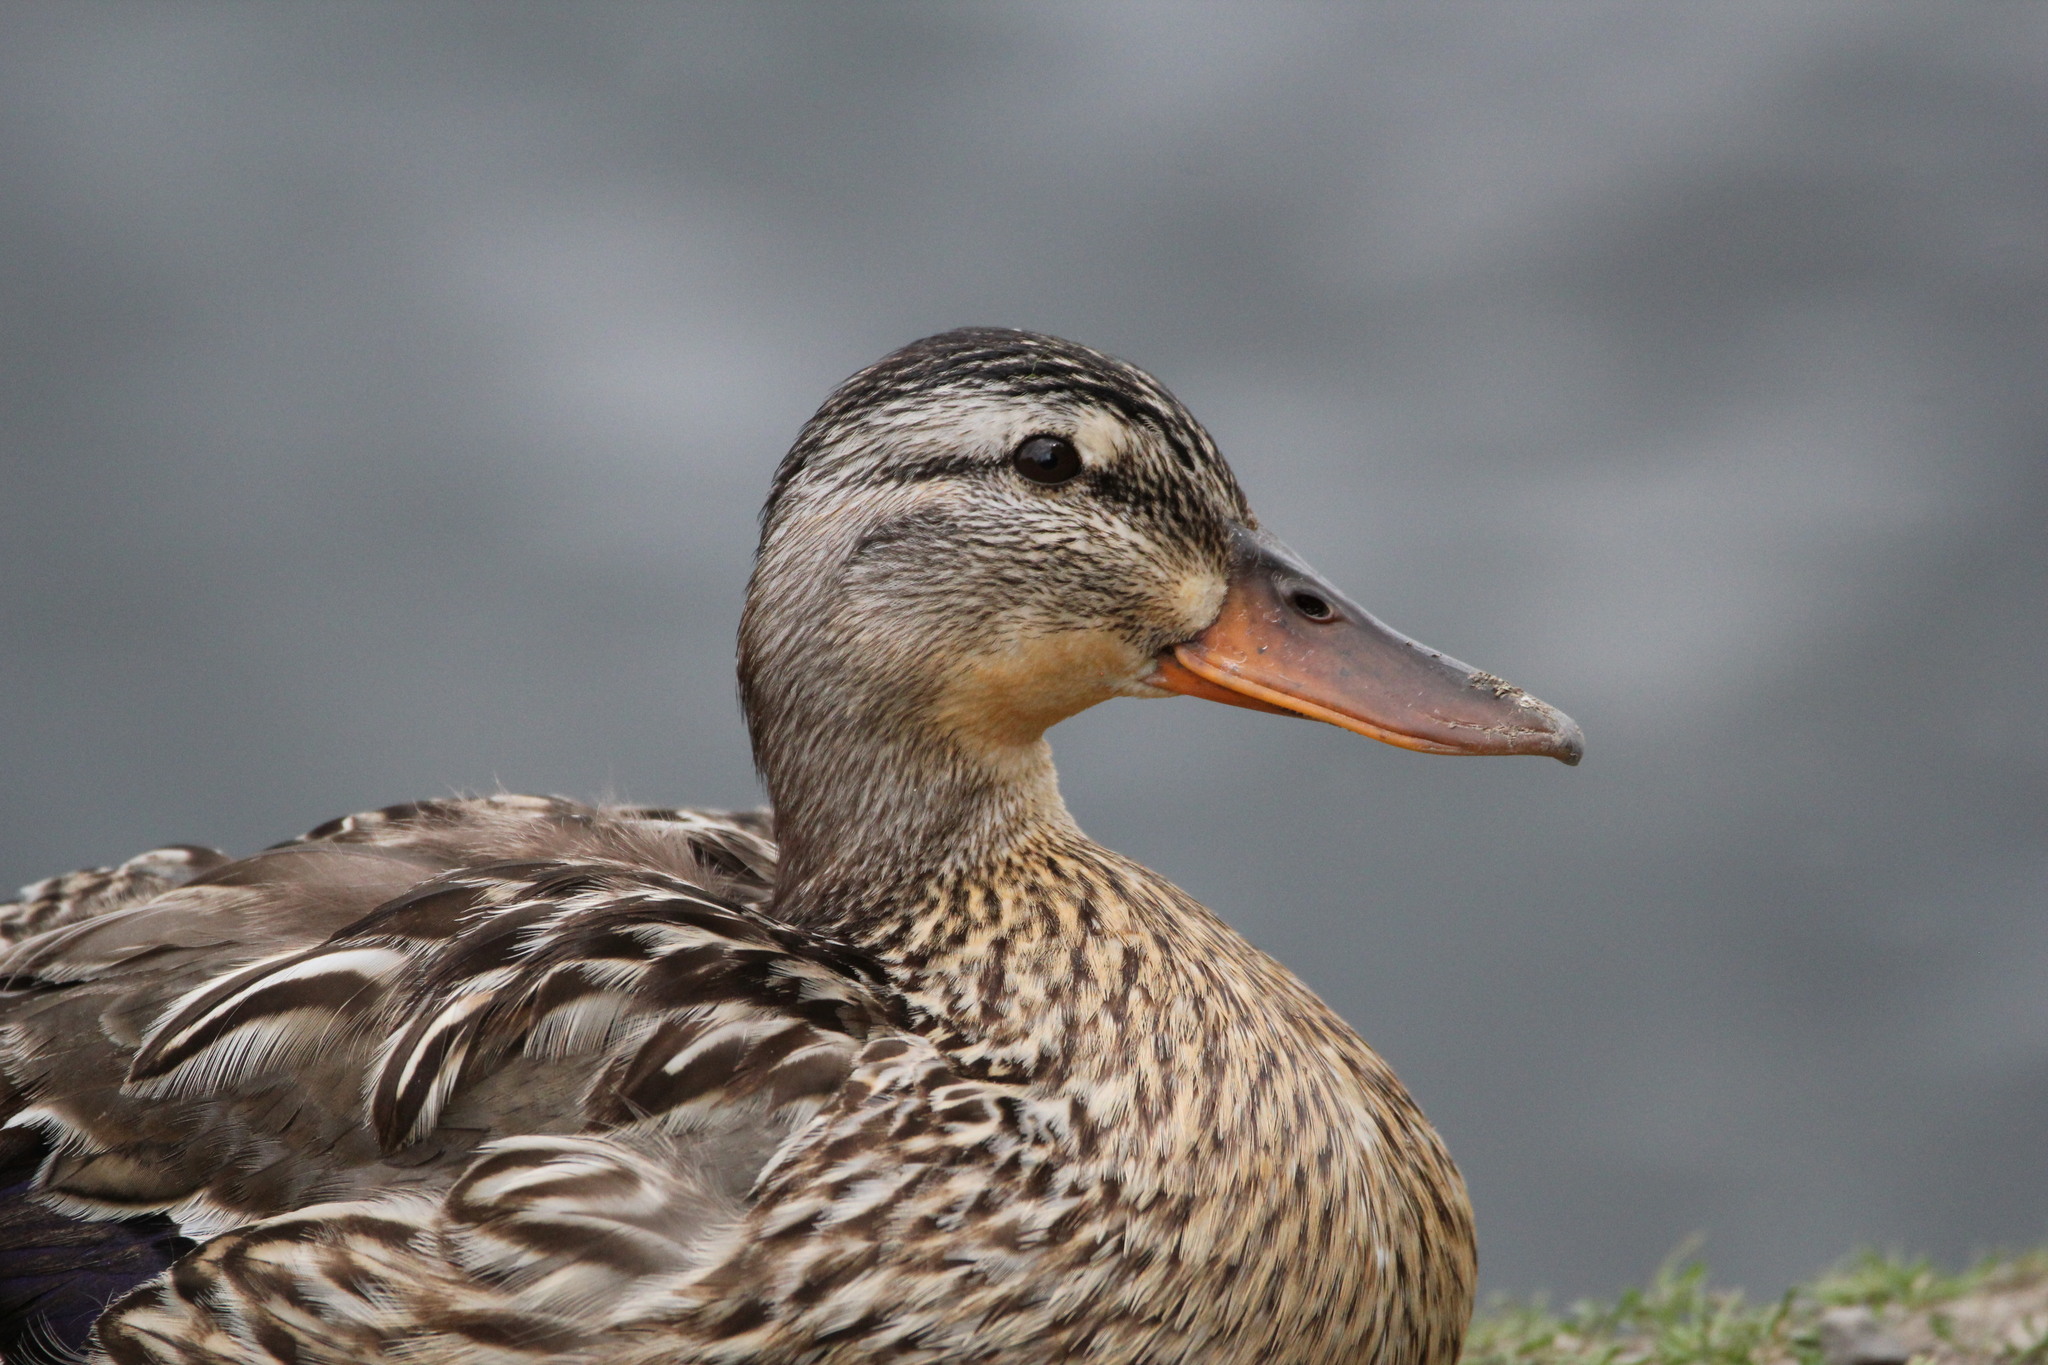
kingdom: Animalia
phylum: Chordata
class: Aves
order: Anseriformes
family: Anatidae
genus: Anas
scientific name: Anas platyrhynchos
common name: Mallard
